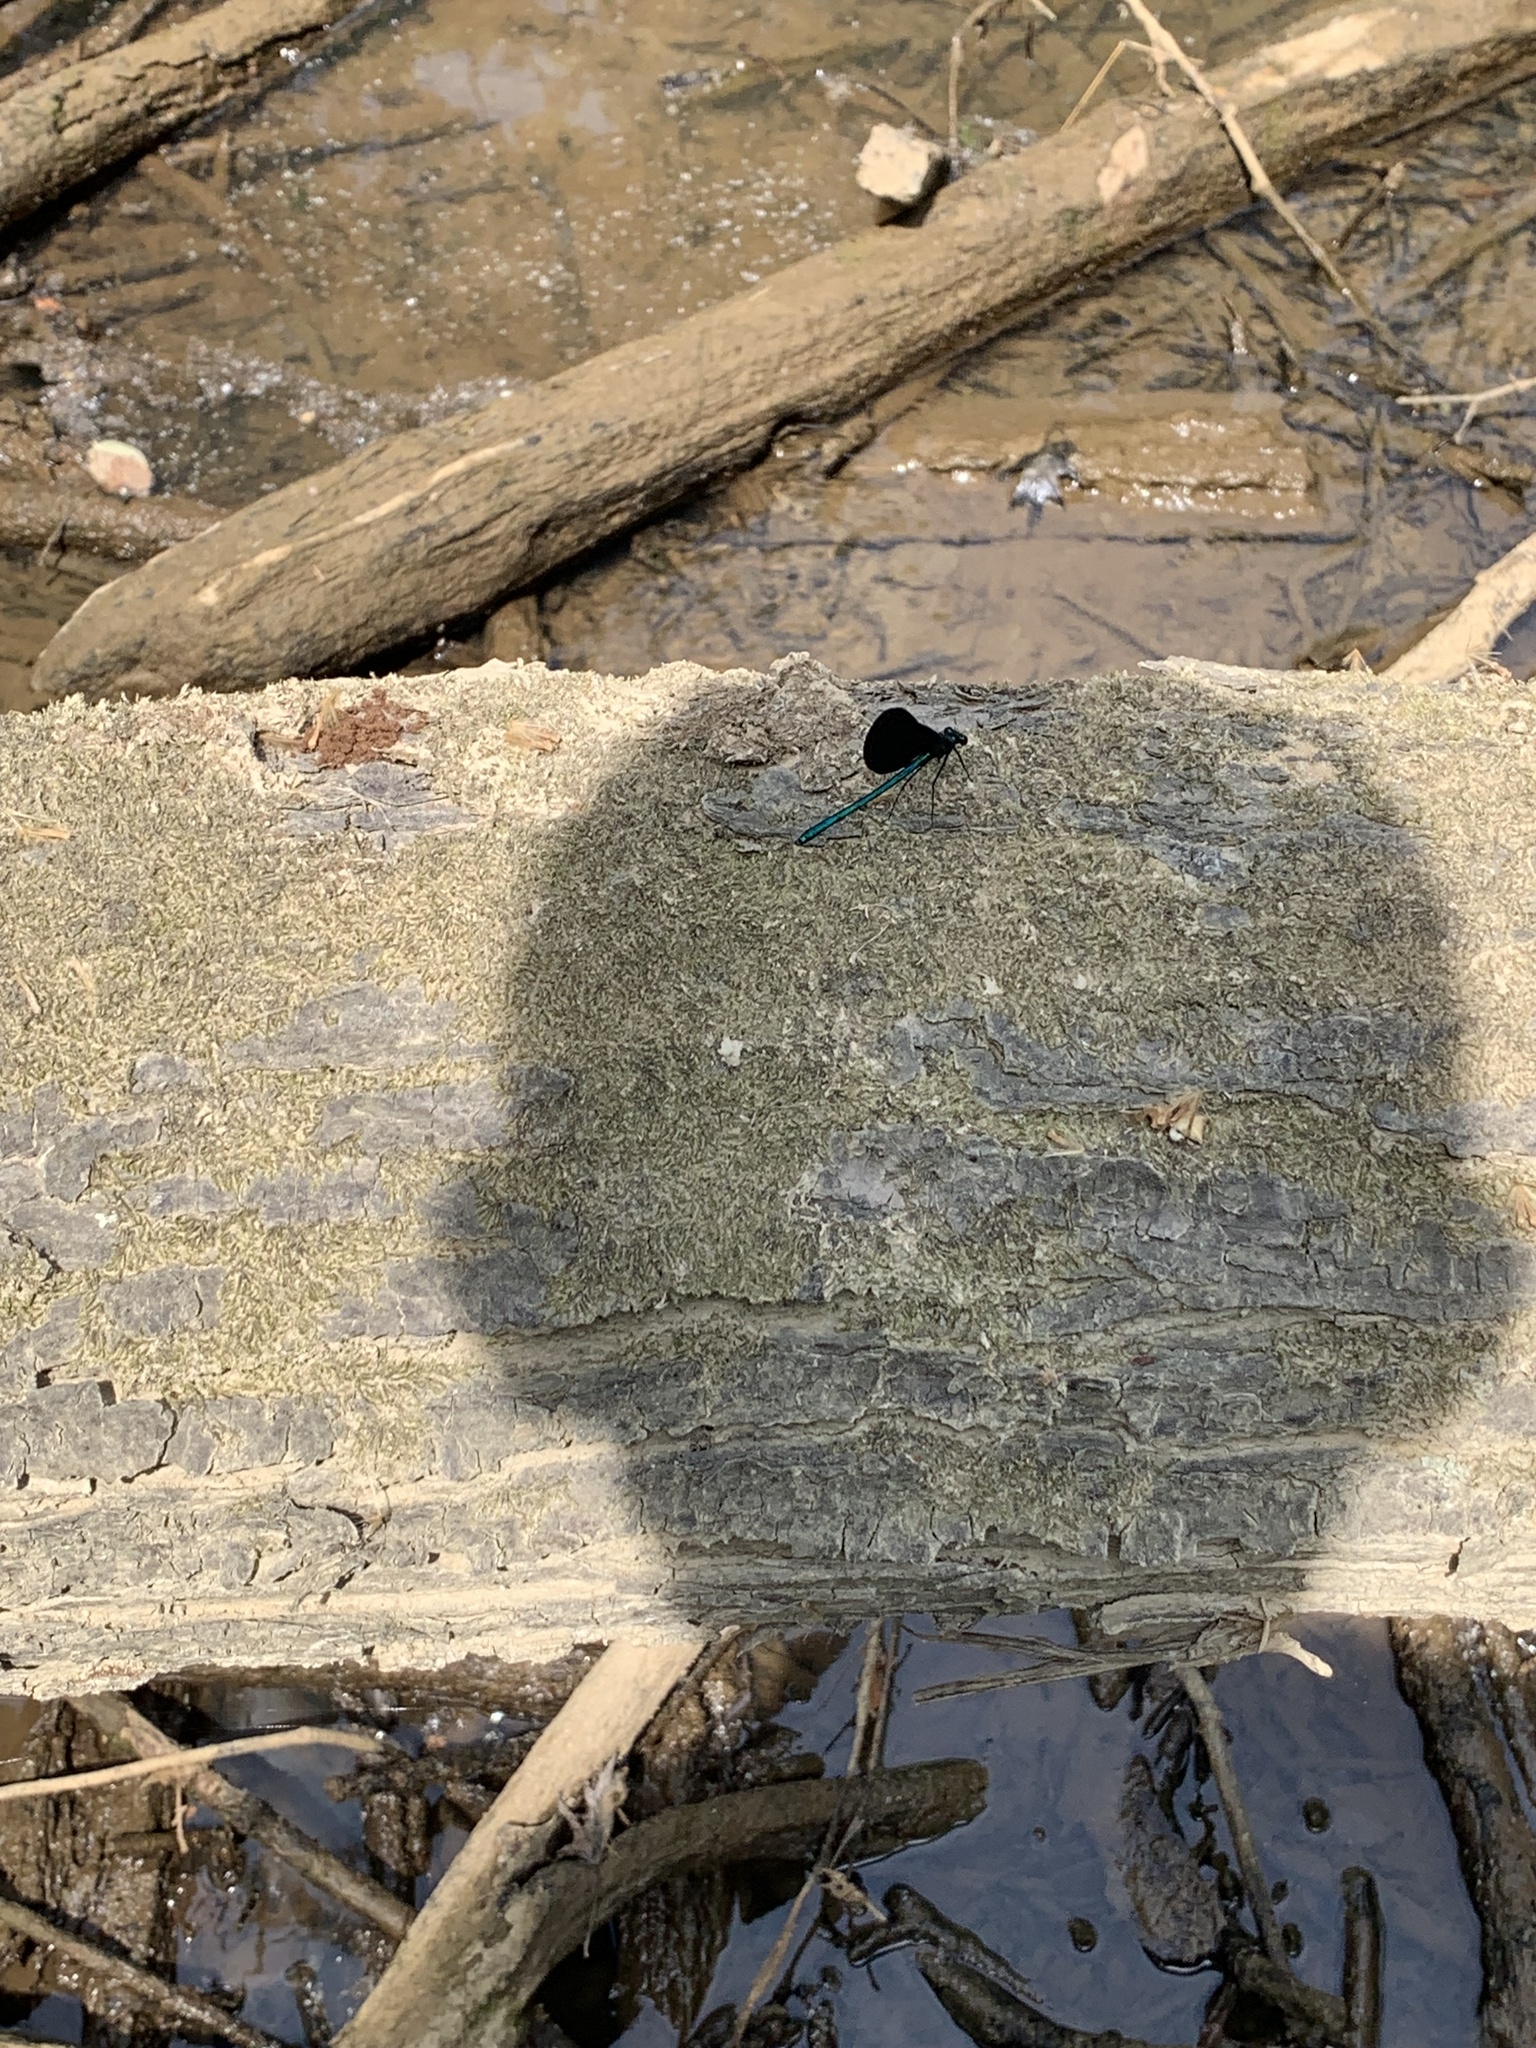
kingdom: Animalia
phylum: Arthropoda
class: Insecta
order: Odonata
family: Calopterygidae
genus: Calopteryx
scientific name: Calopteryx maculata
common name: Ebony jewelwing
